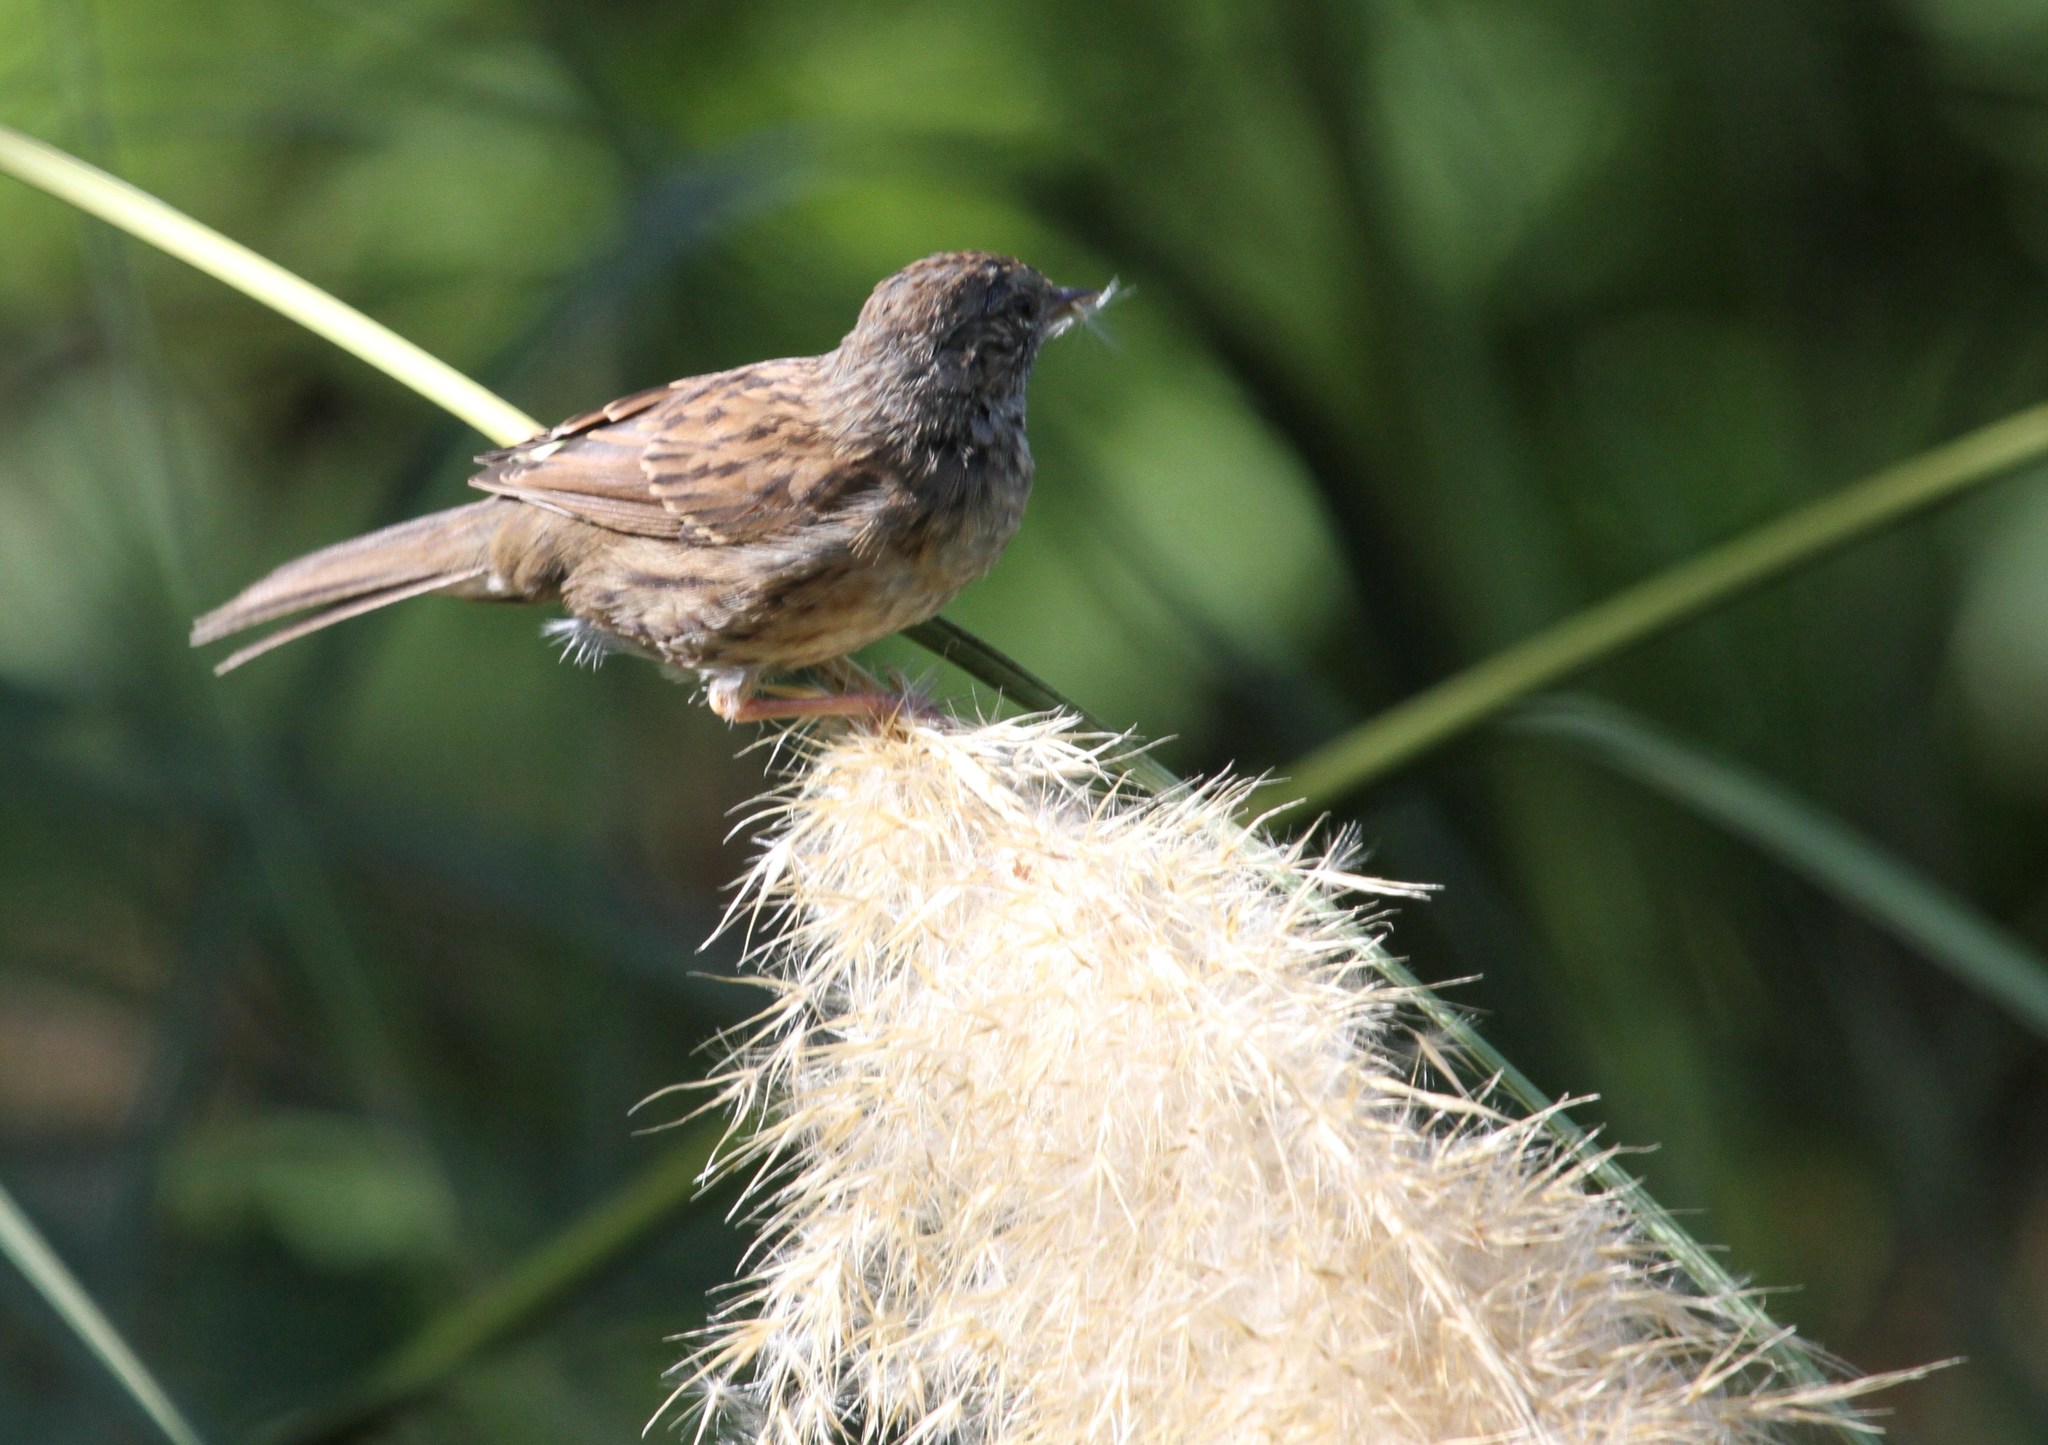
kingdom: Animalia
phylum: Chordata
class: Aves
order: Passeriformes
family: Prunellidae
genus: Prunella
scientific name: Prunella modularis
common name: Dunnock
